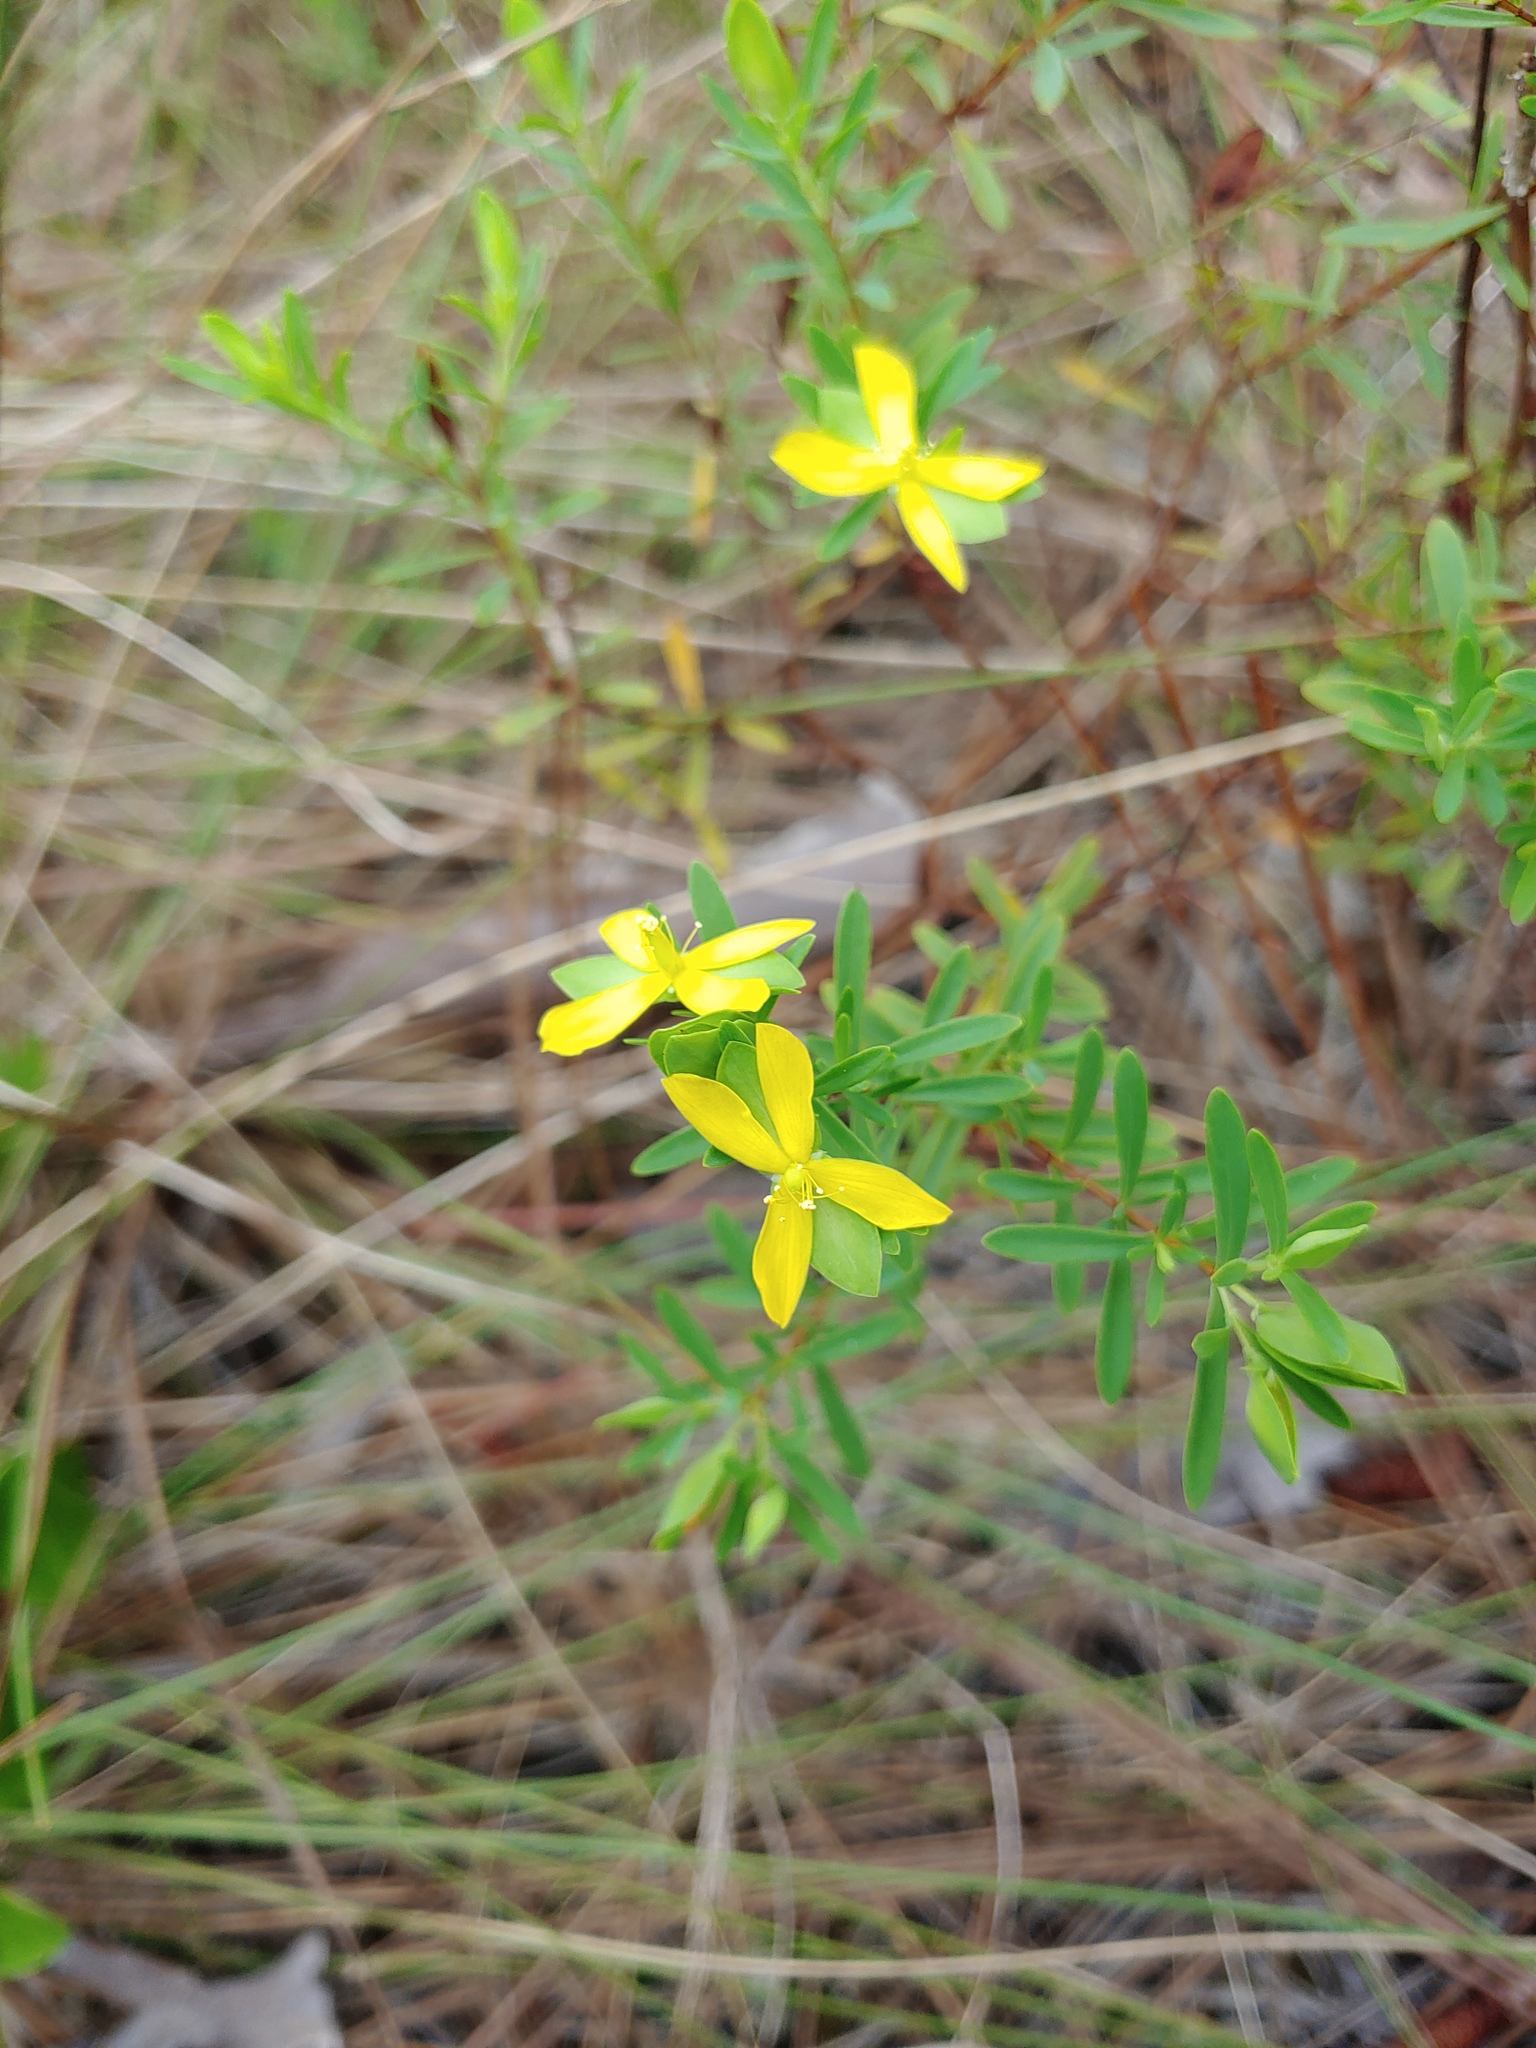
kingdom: Plantae
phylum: Tracheophyta
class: Magnoliopsida
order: Malpighiales
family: Hypericaceae
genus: Hypericum
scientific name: Hypericum hypericoides
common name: St. andrew's cross
